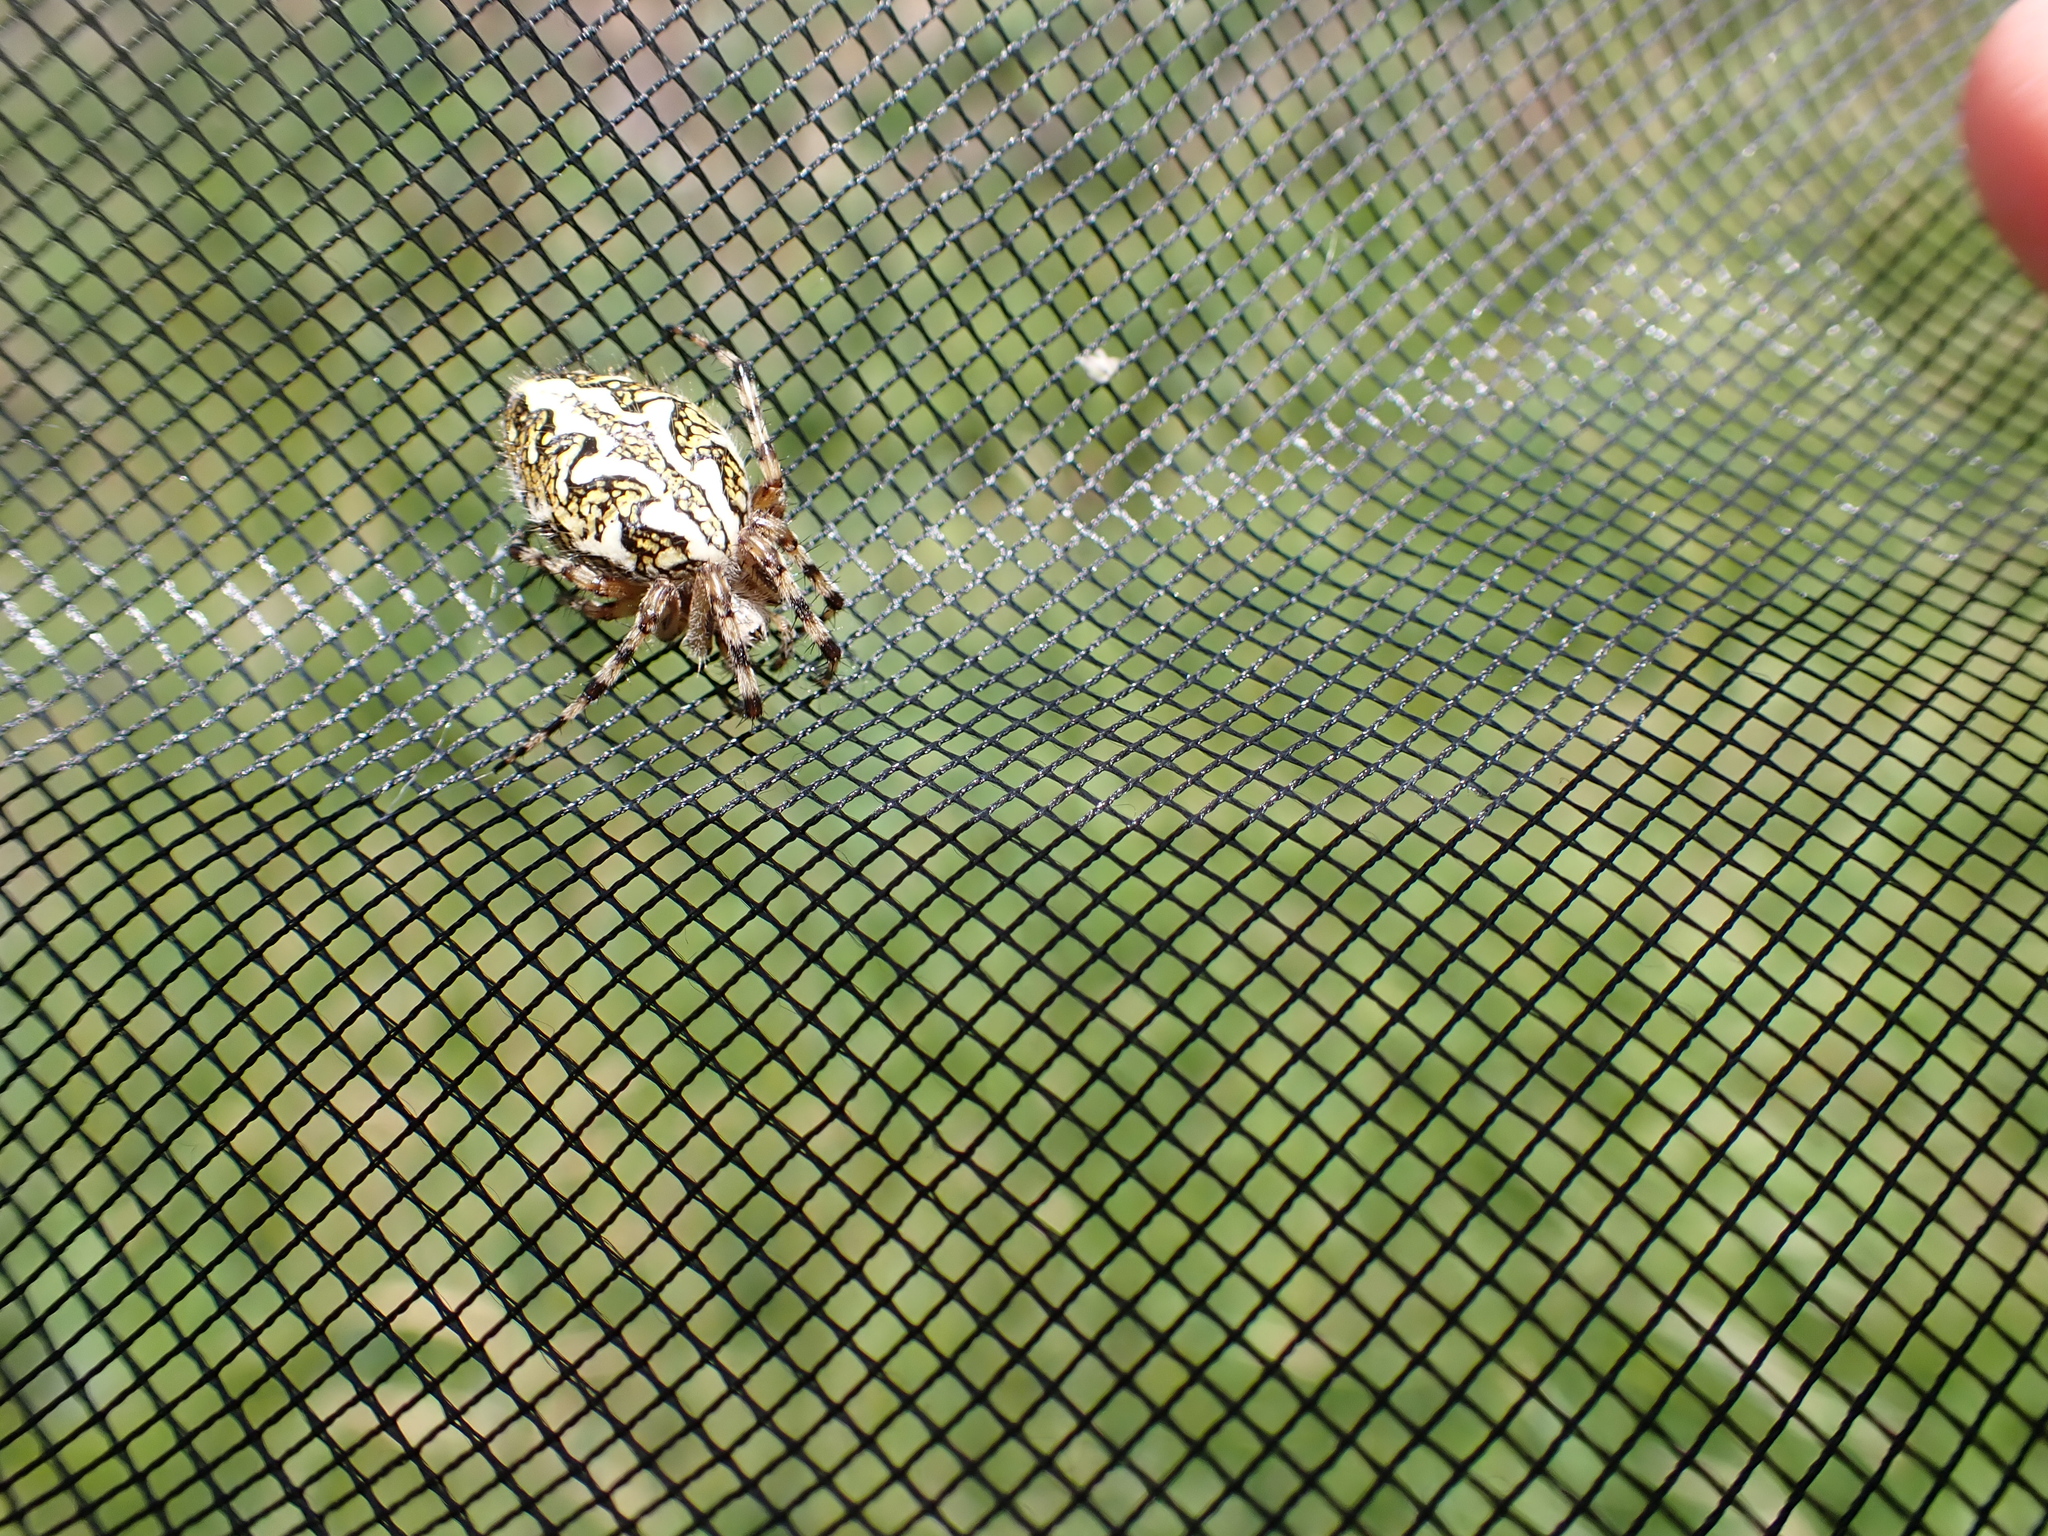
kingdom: Animalia
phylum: Arthropoda
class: Arachnida
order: Araneae
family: Araneidae
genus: Aculepeira
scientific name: Aculepeira ceropegia
